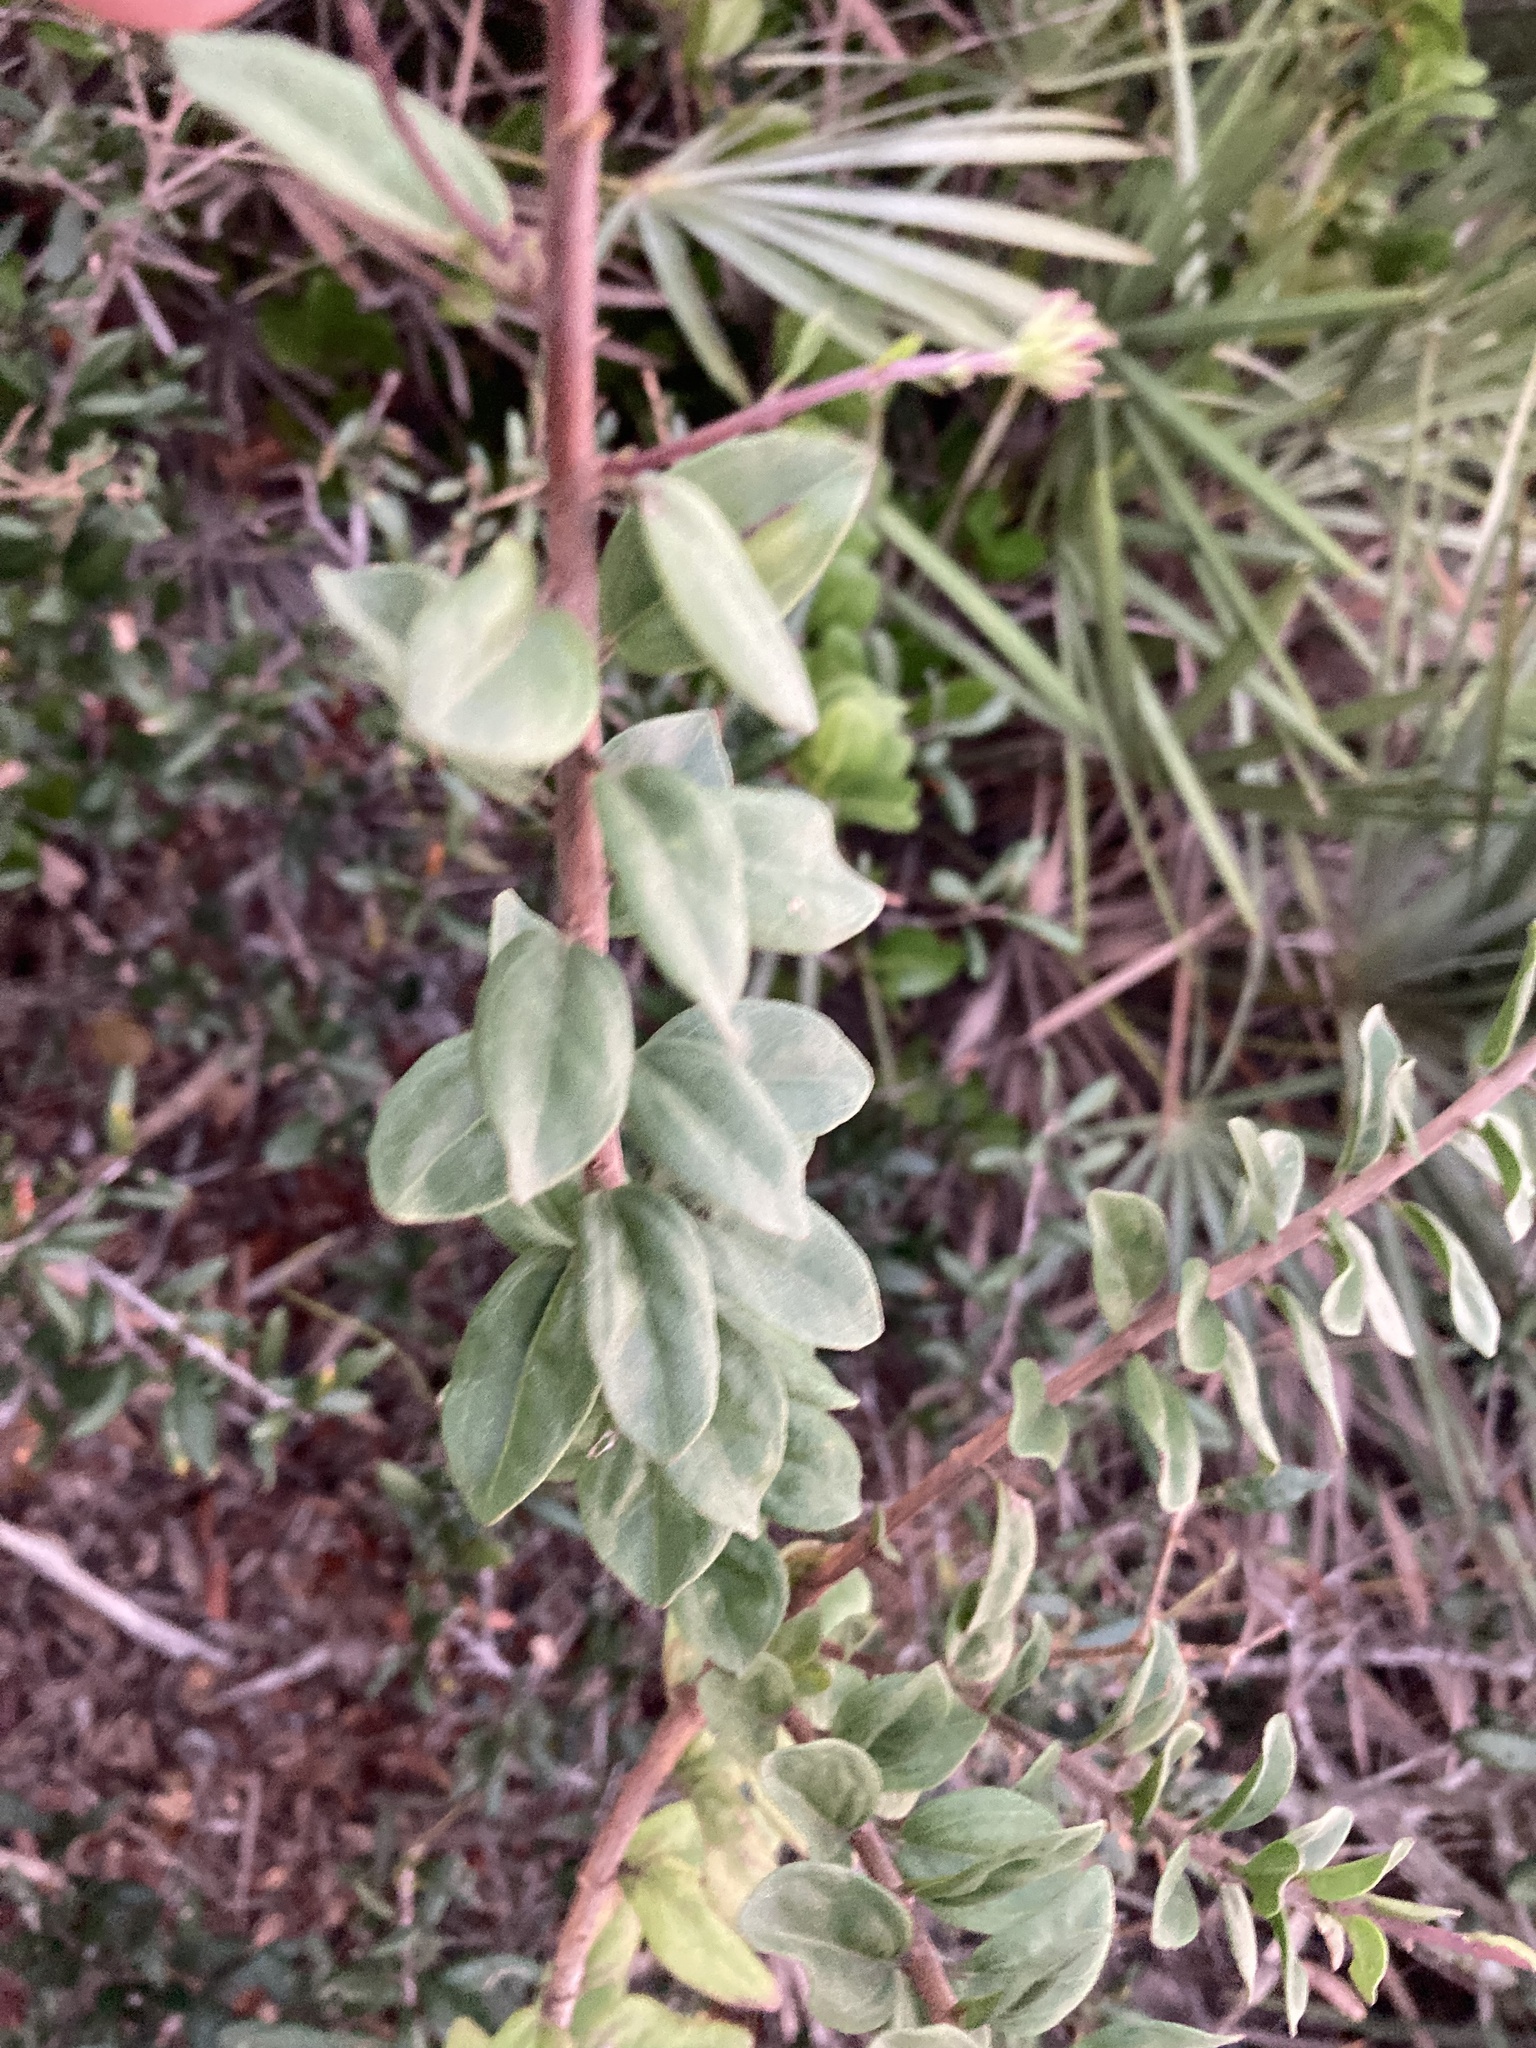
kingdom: Plantae
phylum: Tracheophyta
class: Magnoliopsida
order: Asterales
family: Asteraceae
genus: Palafoxia
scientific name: Palafoxia feayi
